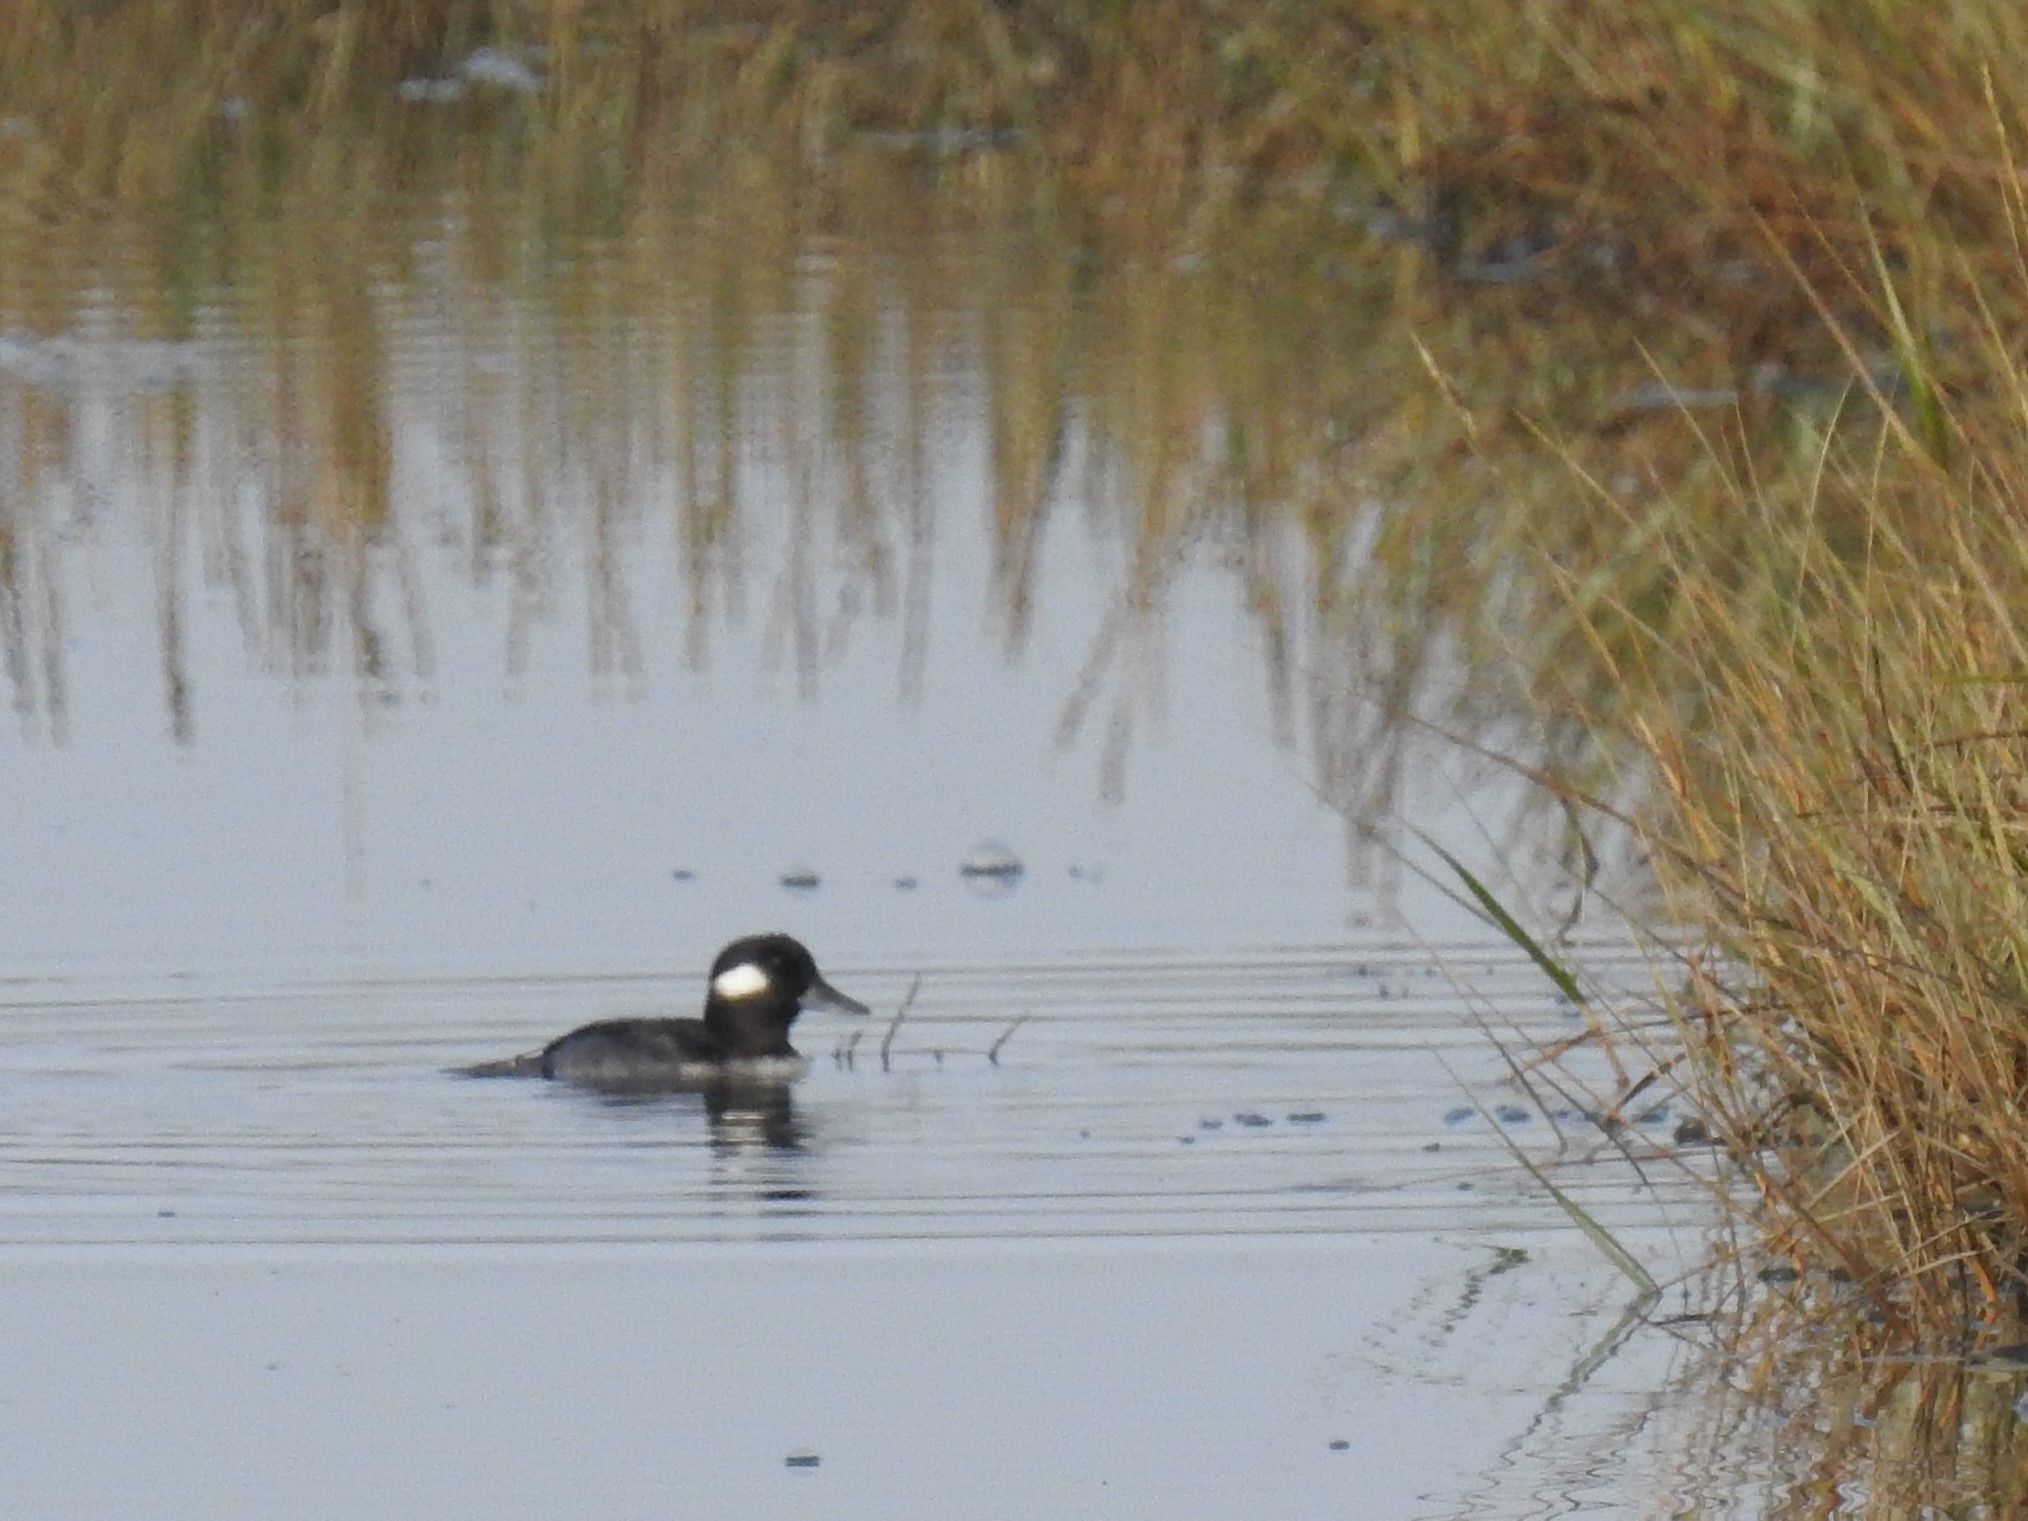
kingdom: Animalia
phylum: Chordata
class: Aves
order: Anseriformes
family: Anatidae
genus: Bucephala
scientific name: Bucephala albeola
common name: Bufflehead
